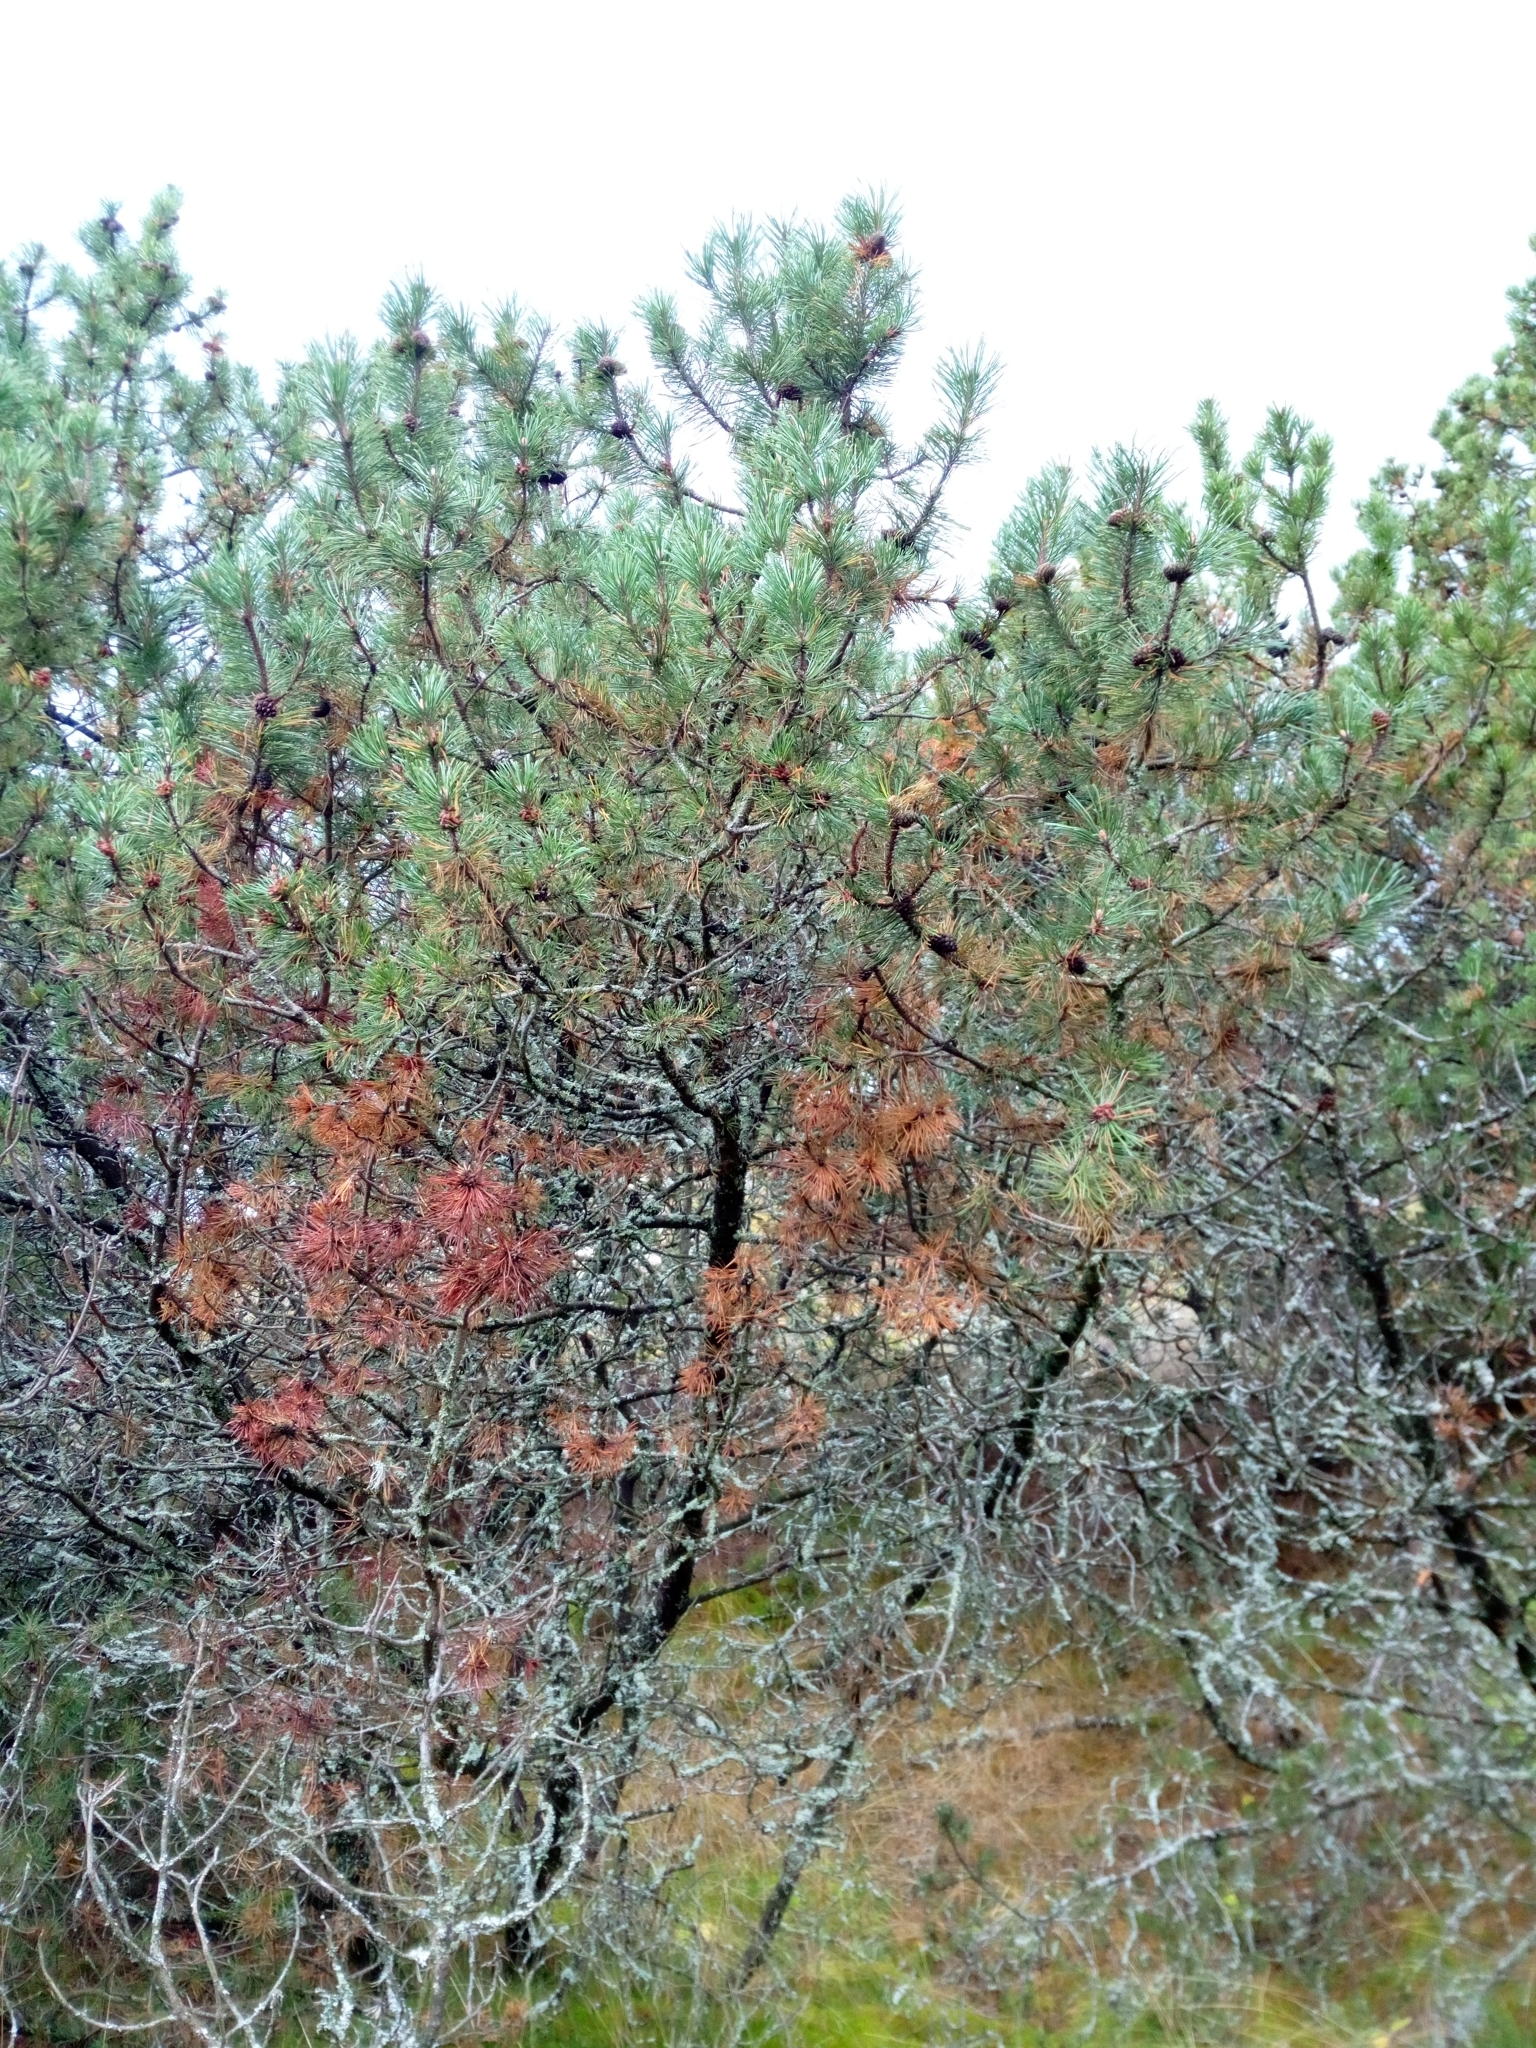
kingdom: Plantae
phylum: Tracheophyta
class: Pinopsida
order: Pinales
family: Pinaceae
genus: Pinus
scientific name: Pinus mugo
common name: Mugo pine
